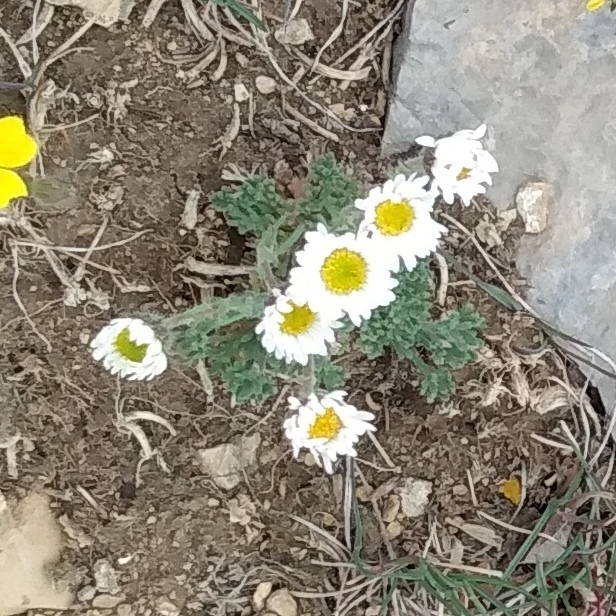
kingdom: Plantae
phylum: Tracheophyta
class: Magnoliopsida
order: Asterales
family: Asteraceae
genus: Erigeron
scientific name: Erigeron compositus
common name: Dwarf mountain fleabane
